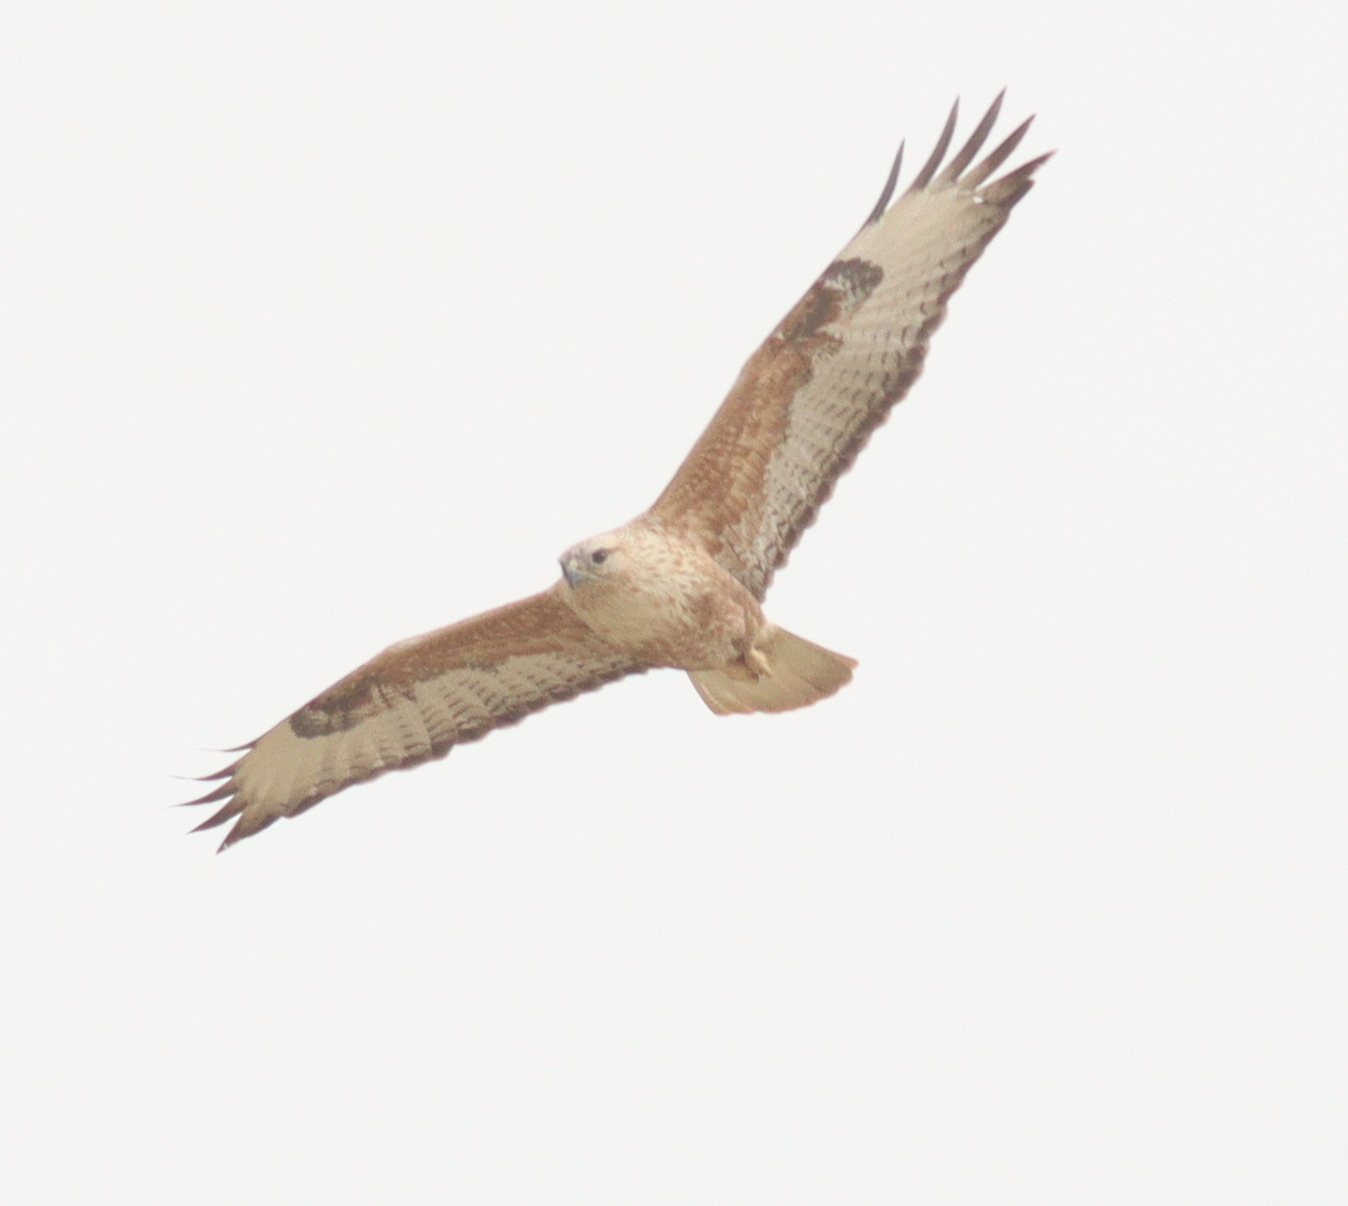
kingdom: Animalia
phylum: Chordata
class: Aves
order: Accipitriformes
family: Accipitridae
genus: Buteo
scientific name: Buteo rufinus
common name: Long-legged buzzard
